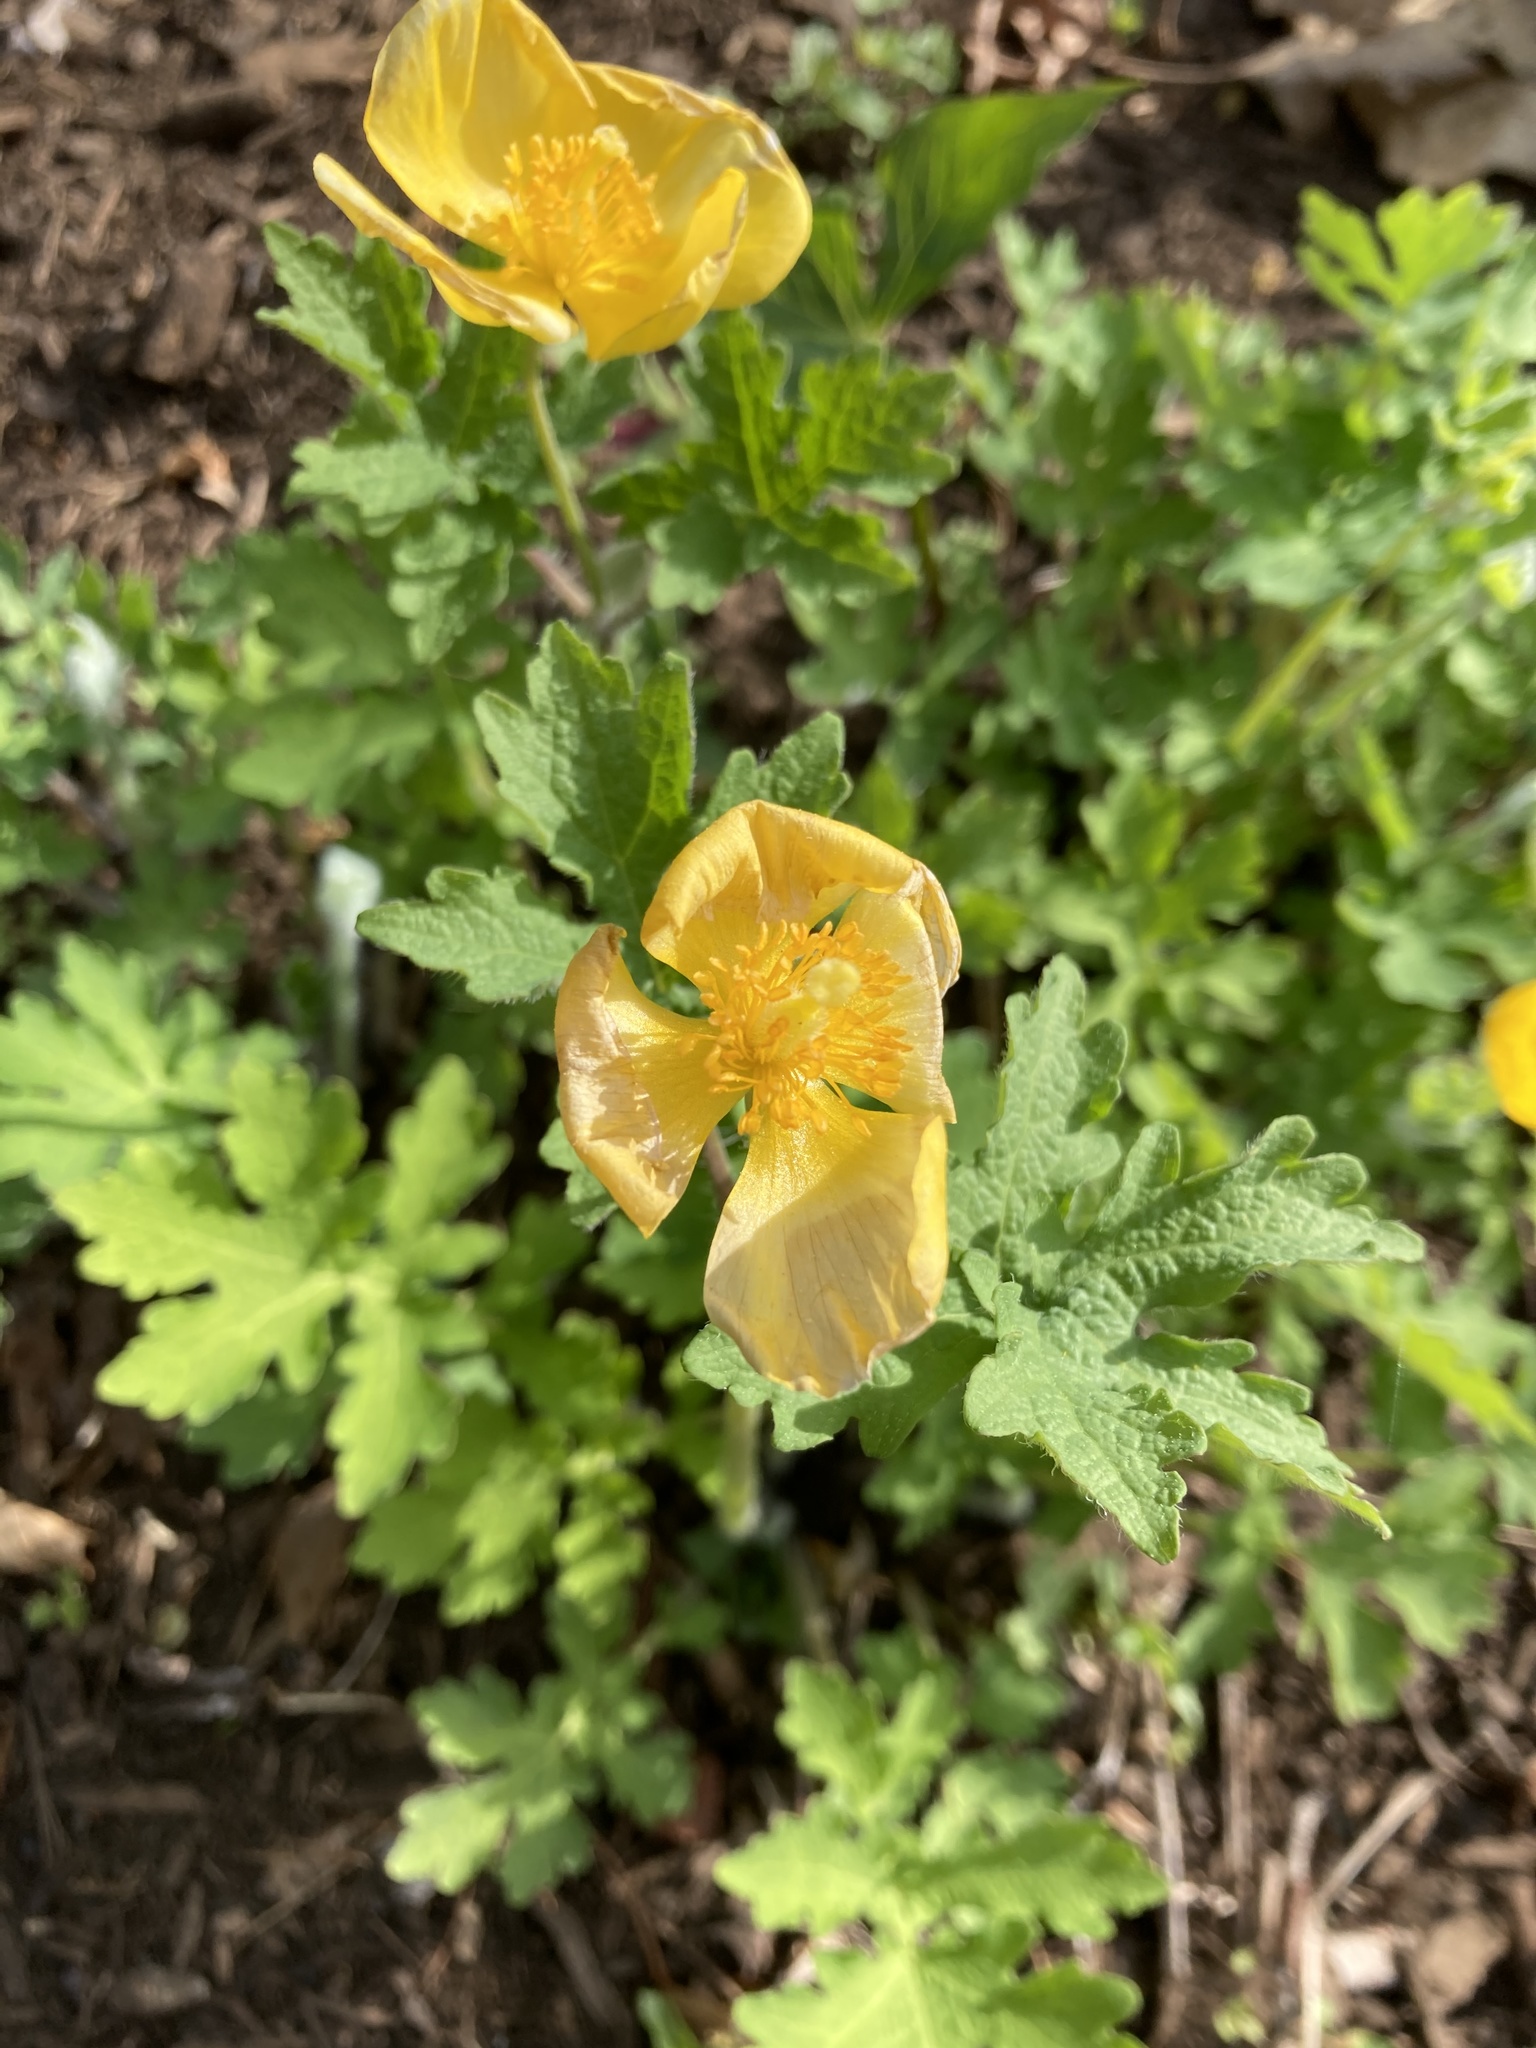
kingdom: Plantae
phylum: Tracheophyta
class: Magnoliopsida
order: Ranunculales
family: Papaveraceae
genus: Stylophorum
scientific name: Stylophorum diphyllum
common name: Celandine poppy
